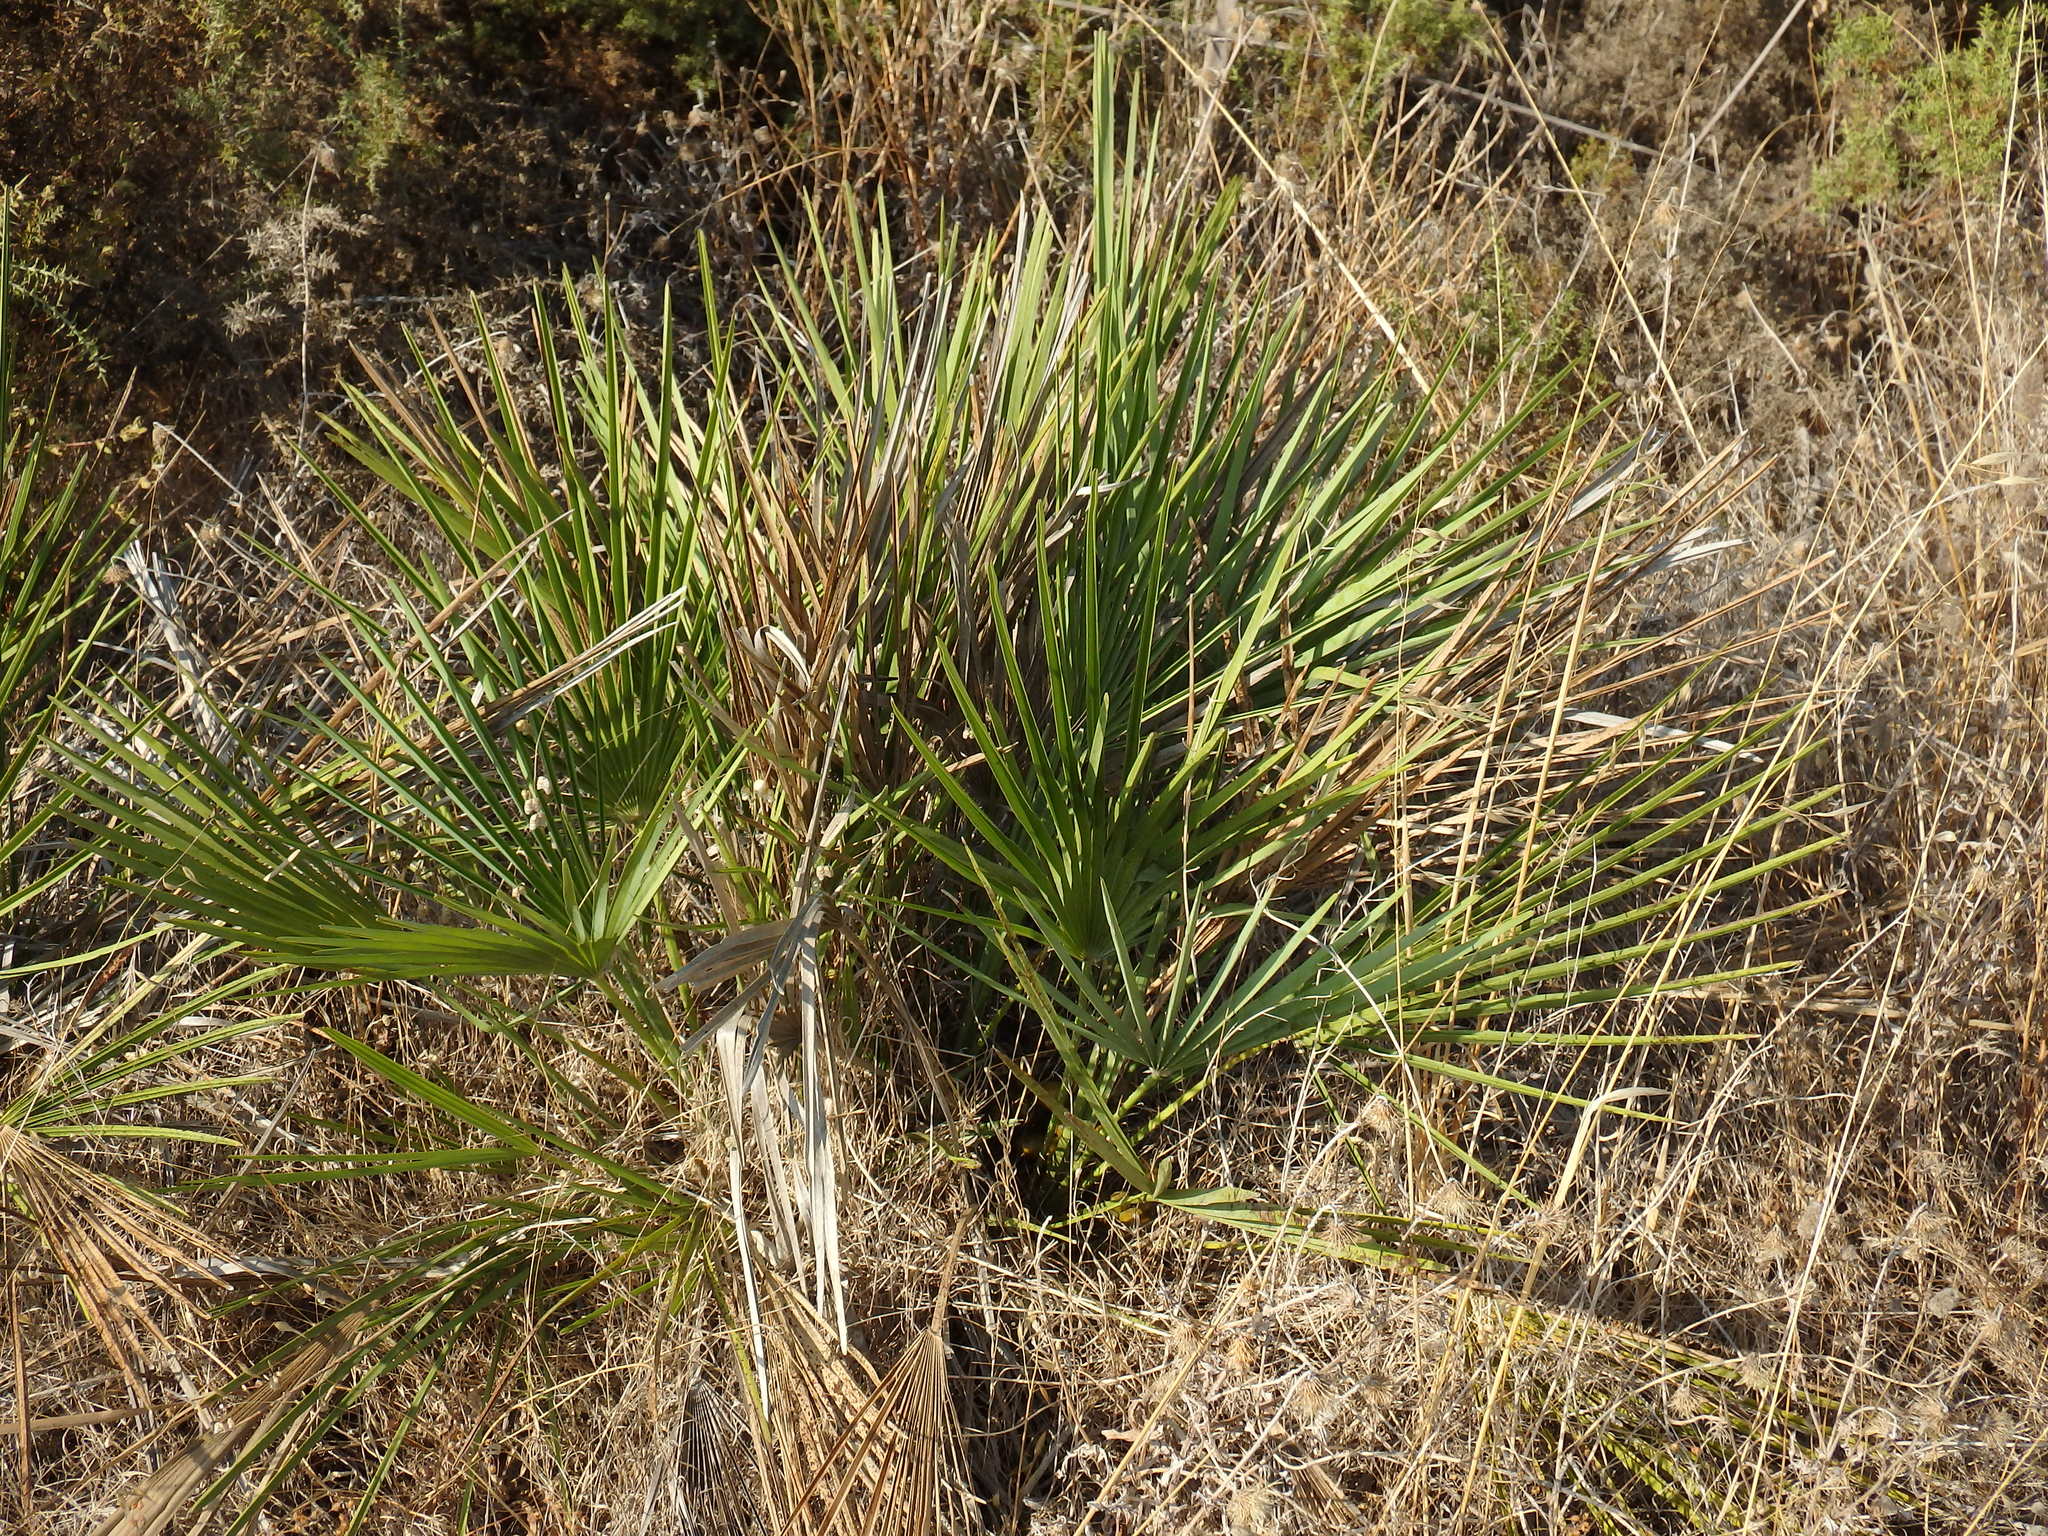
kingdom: Plantae
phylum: Tracheophyta
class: Liliopsida
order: Arecales
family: Arecaceae
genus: Chamaerops
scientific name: Chamaerops humilis
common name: Dwarf fan palm
